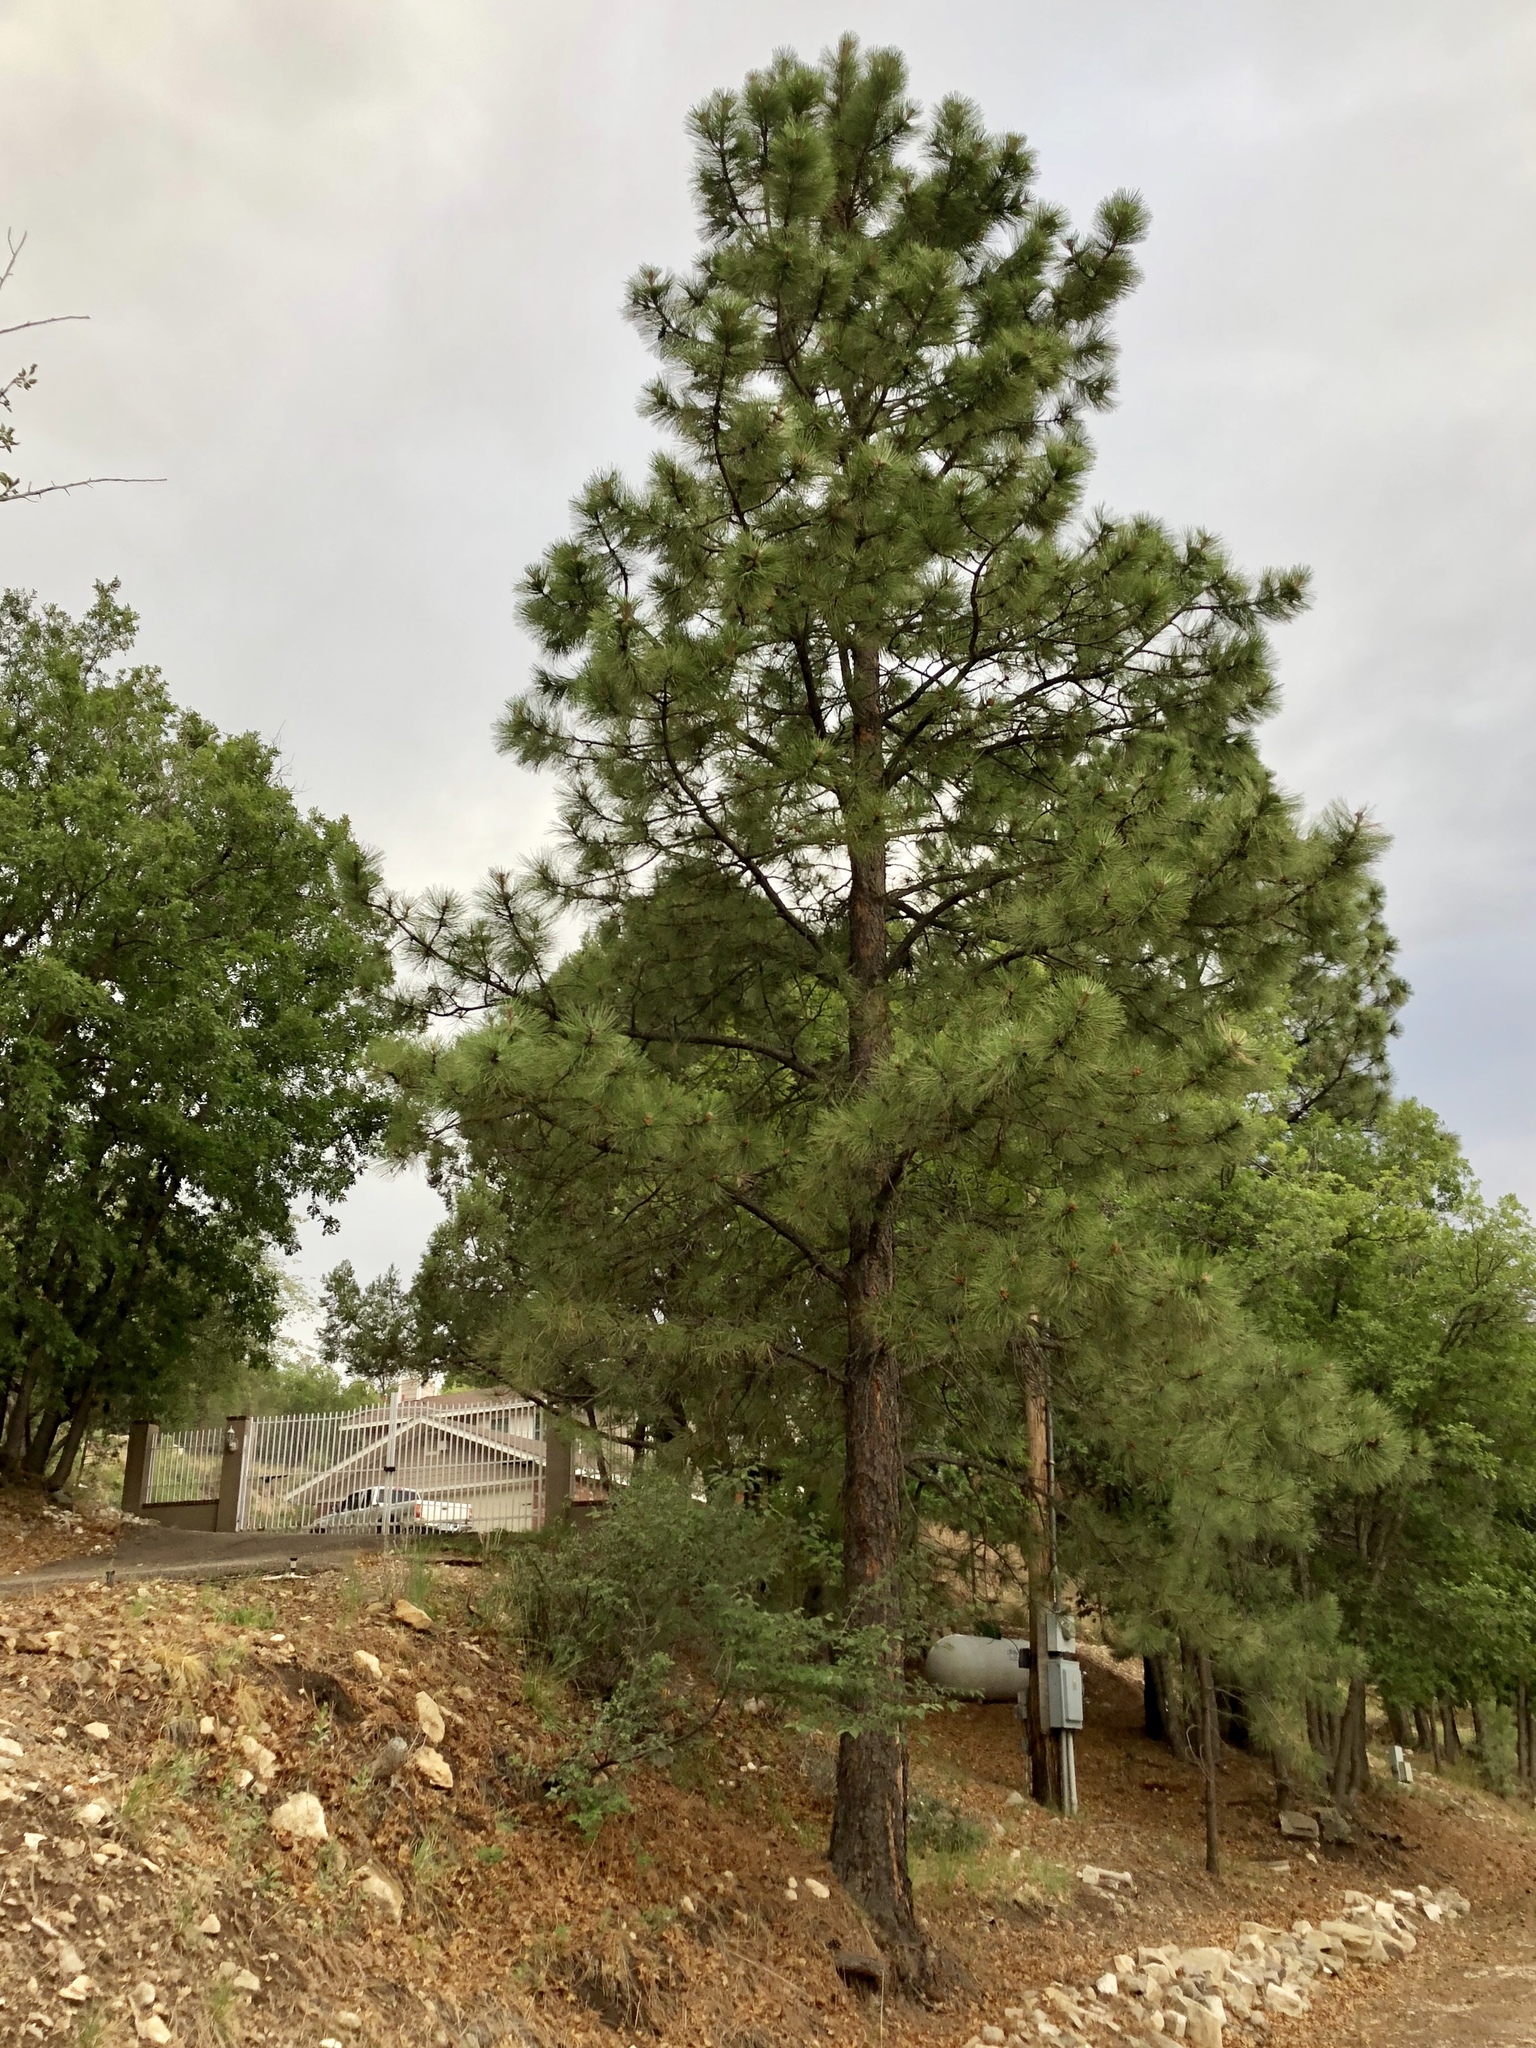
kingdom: Plantae
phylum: Tracheophyta
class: Pinopsida
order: Pinales
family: Pinaceae
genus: Pinus
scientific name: Pinus ponderosa
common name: Western yellow-pine
